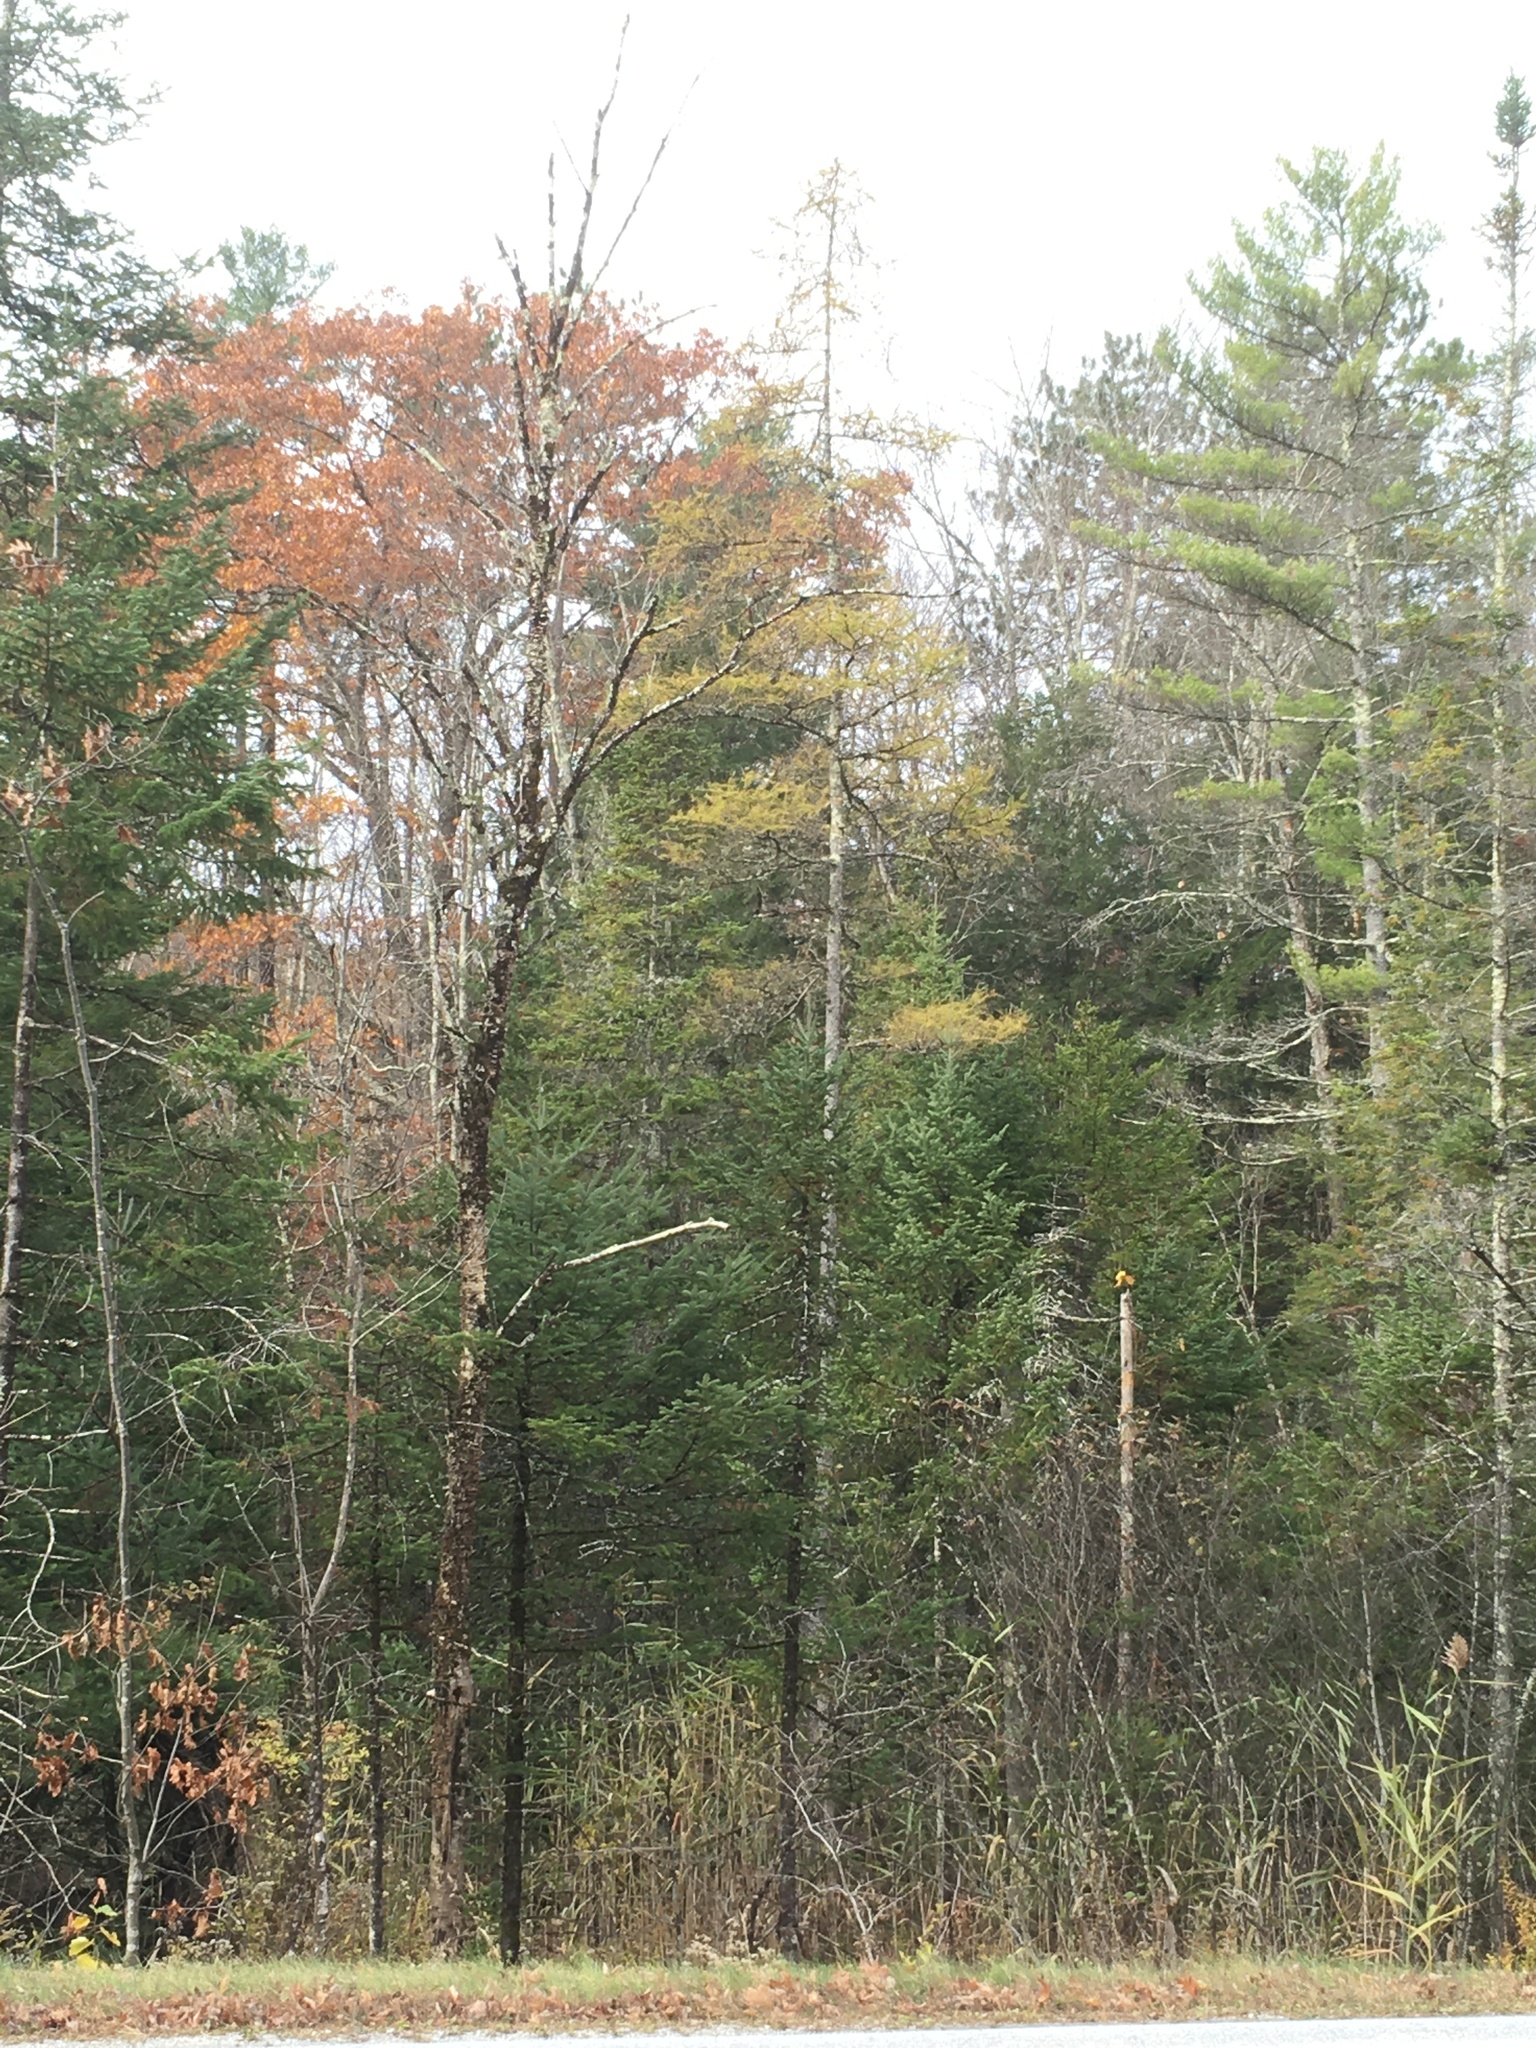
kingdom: Plantae
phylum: Tracheophyta
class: Pinopsida
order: Pinales
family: Pinaceae
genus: Larix
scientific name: Larix laricina
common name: American larch
